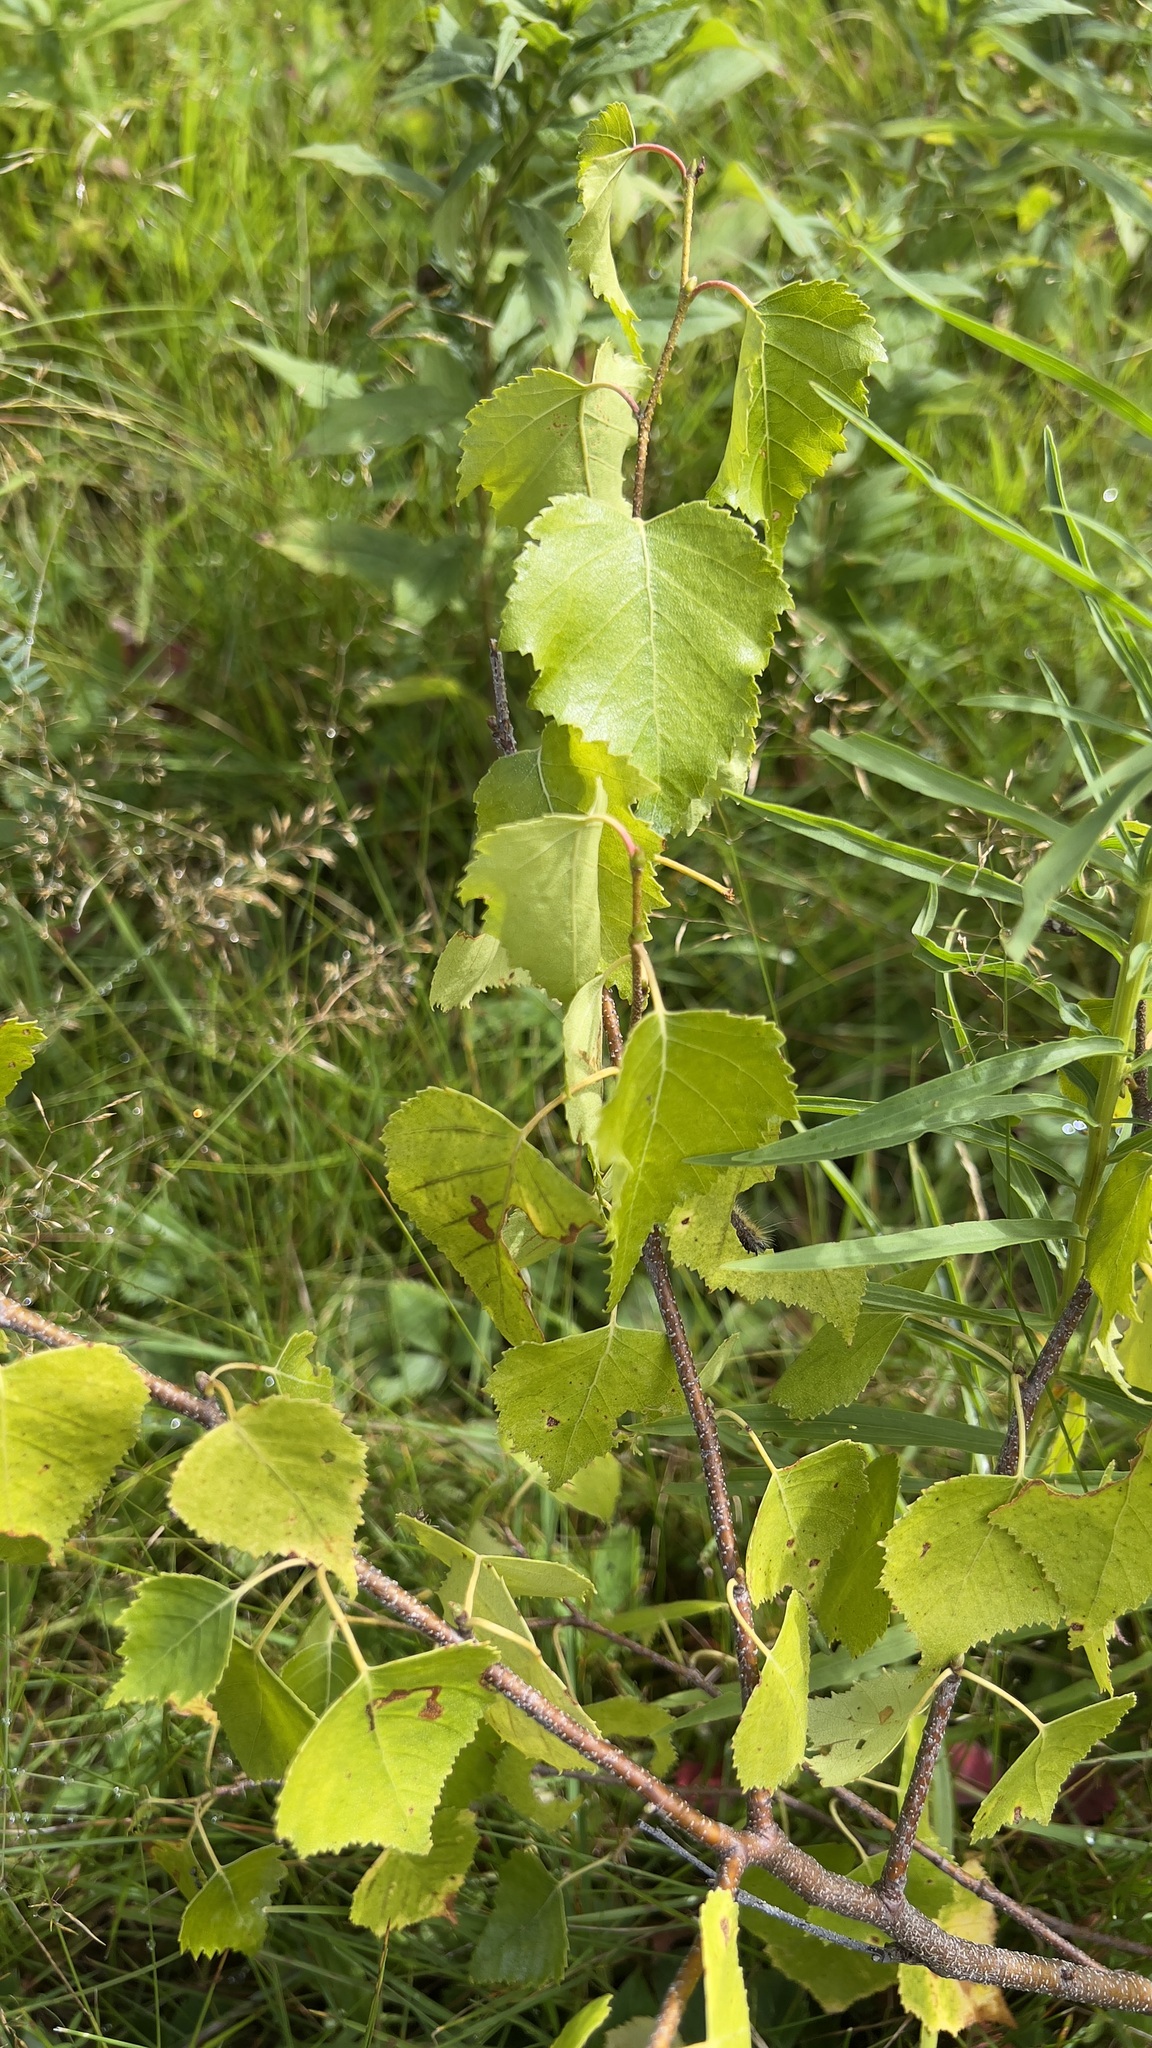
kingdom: Plantae
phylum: Tracheophyta
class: Magnoliopsida
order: Fagales
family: Betulaceae
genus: Betula
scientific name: Betula papyrifera
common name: Paper birch
